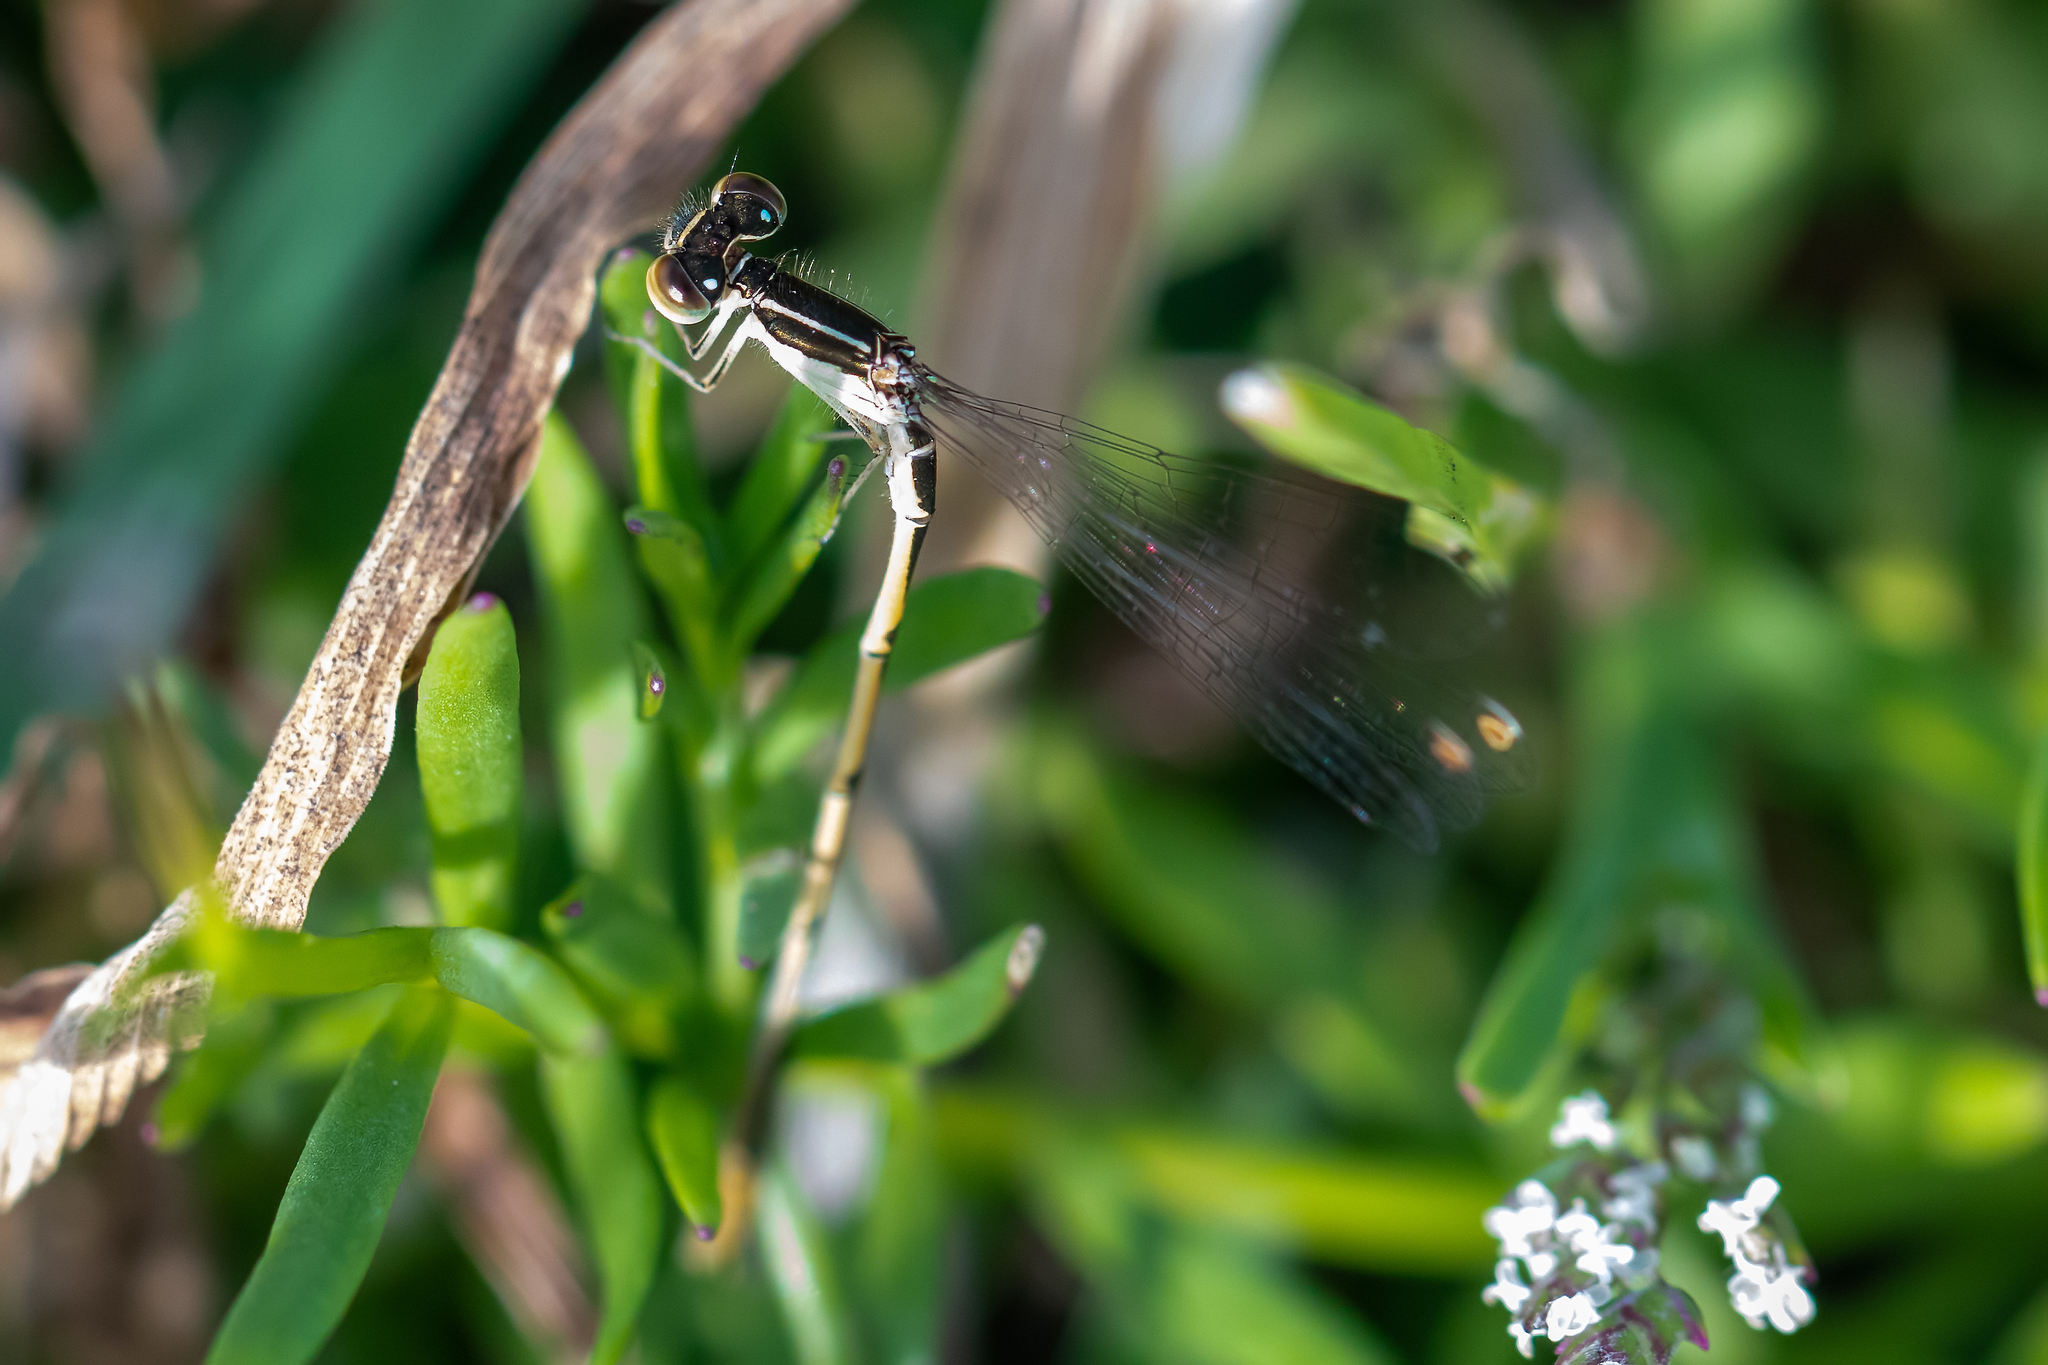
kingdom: Animalia
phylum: Arthropoda
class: Insecta
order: Odonata
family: Coenagrionidae
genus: Ischnura
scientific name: Ischnura hastata
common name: Citrine forktail
